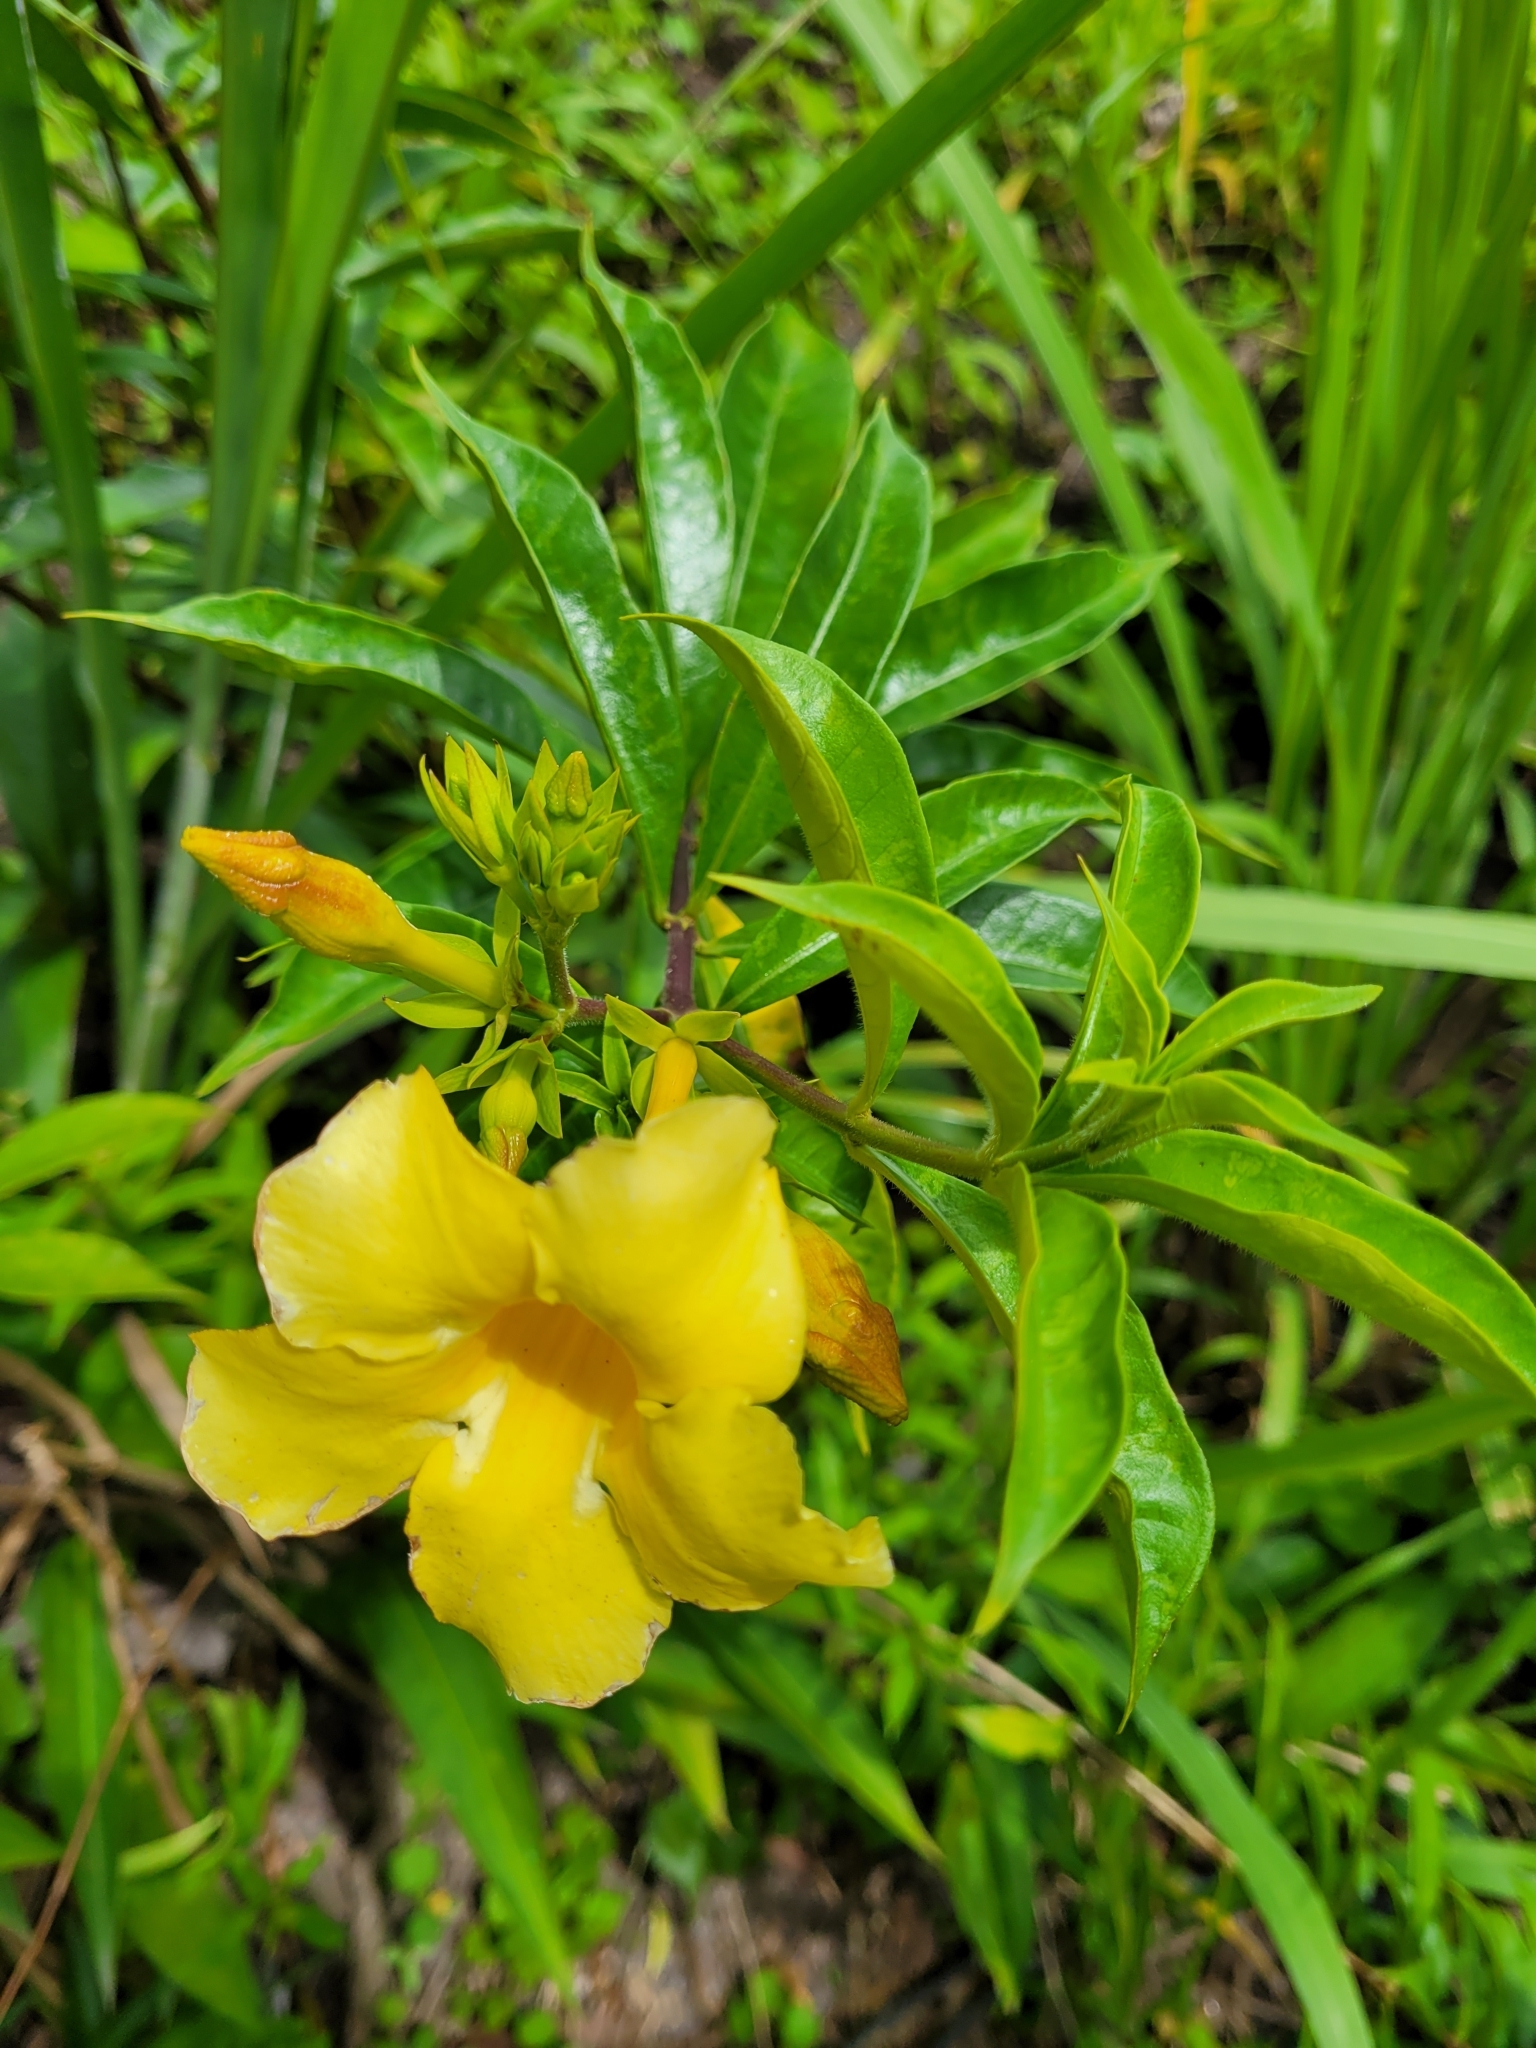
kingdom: Plantae
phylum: Tracheophyta
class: Magnoliopsida
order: Gentianales
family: Apocynaceae
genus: Allamanda
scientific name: Allamanda cathartica
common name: Golden trumpet
